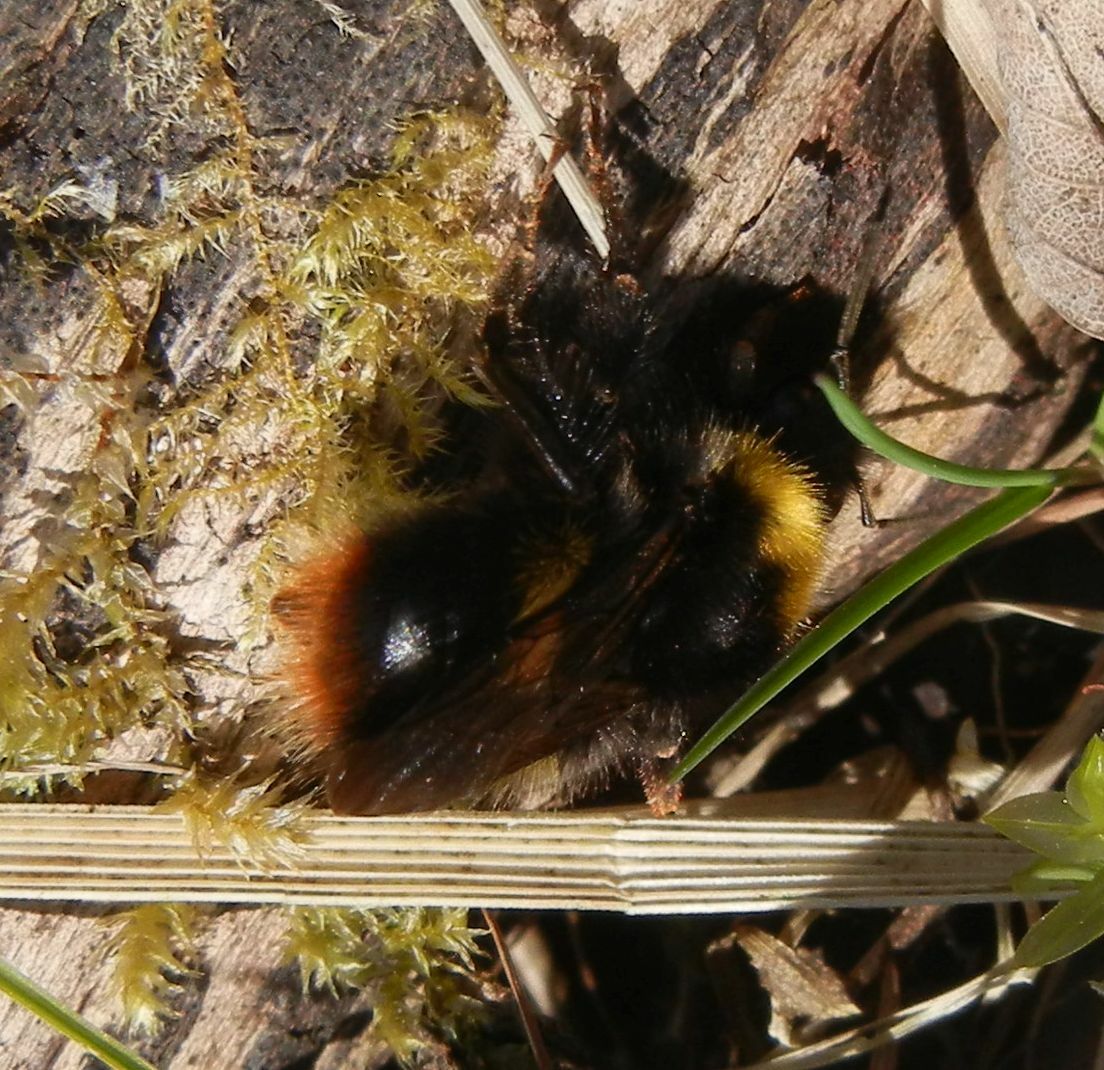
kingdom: Animalia
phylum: Arthropoda
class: Insecta
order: Hymenoptera
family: Apidae
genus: Bombus
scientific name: Bombus pratorum
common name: Early humble-bee
